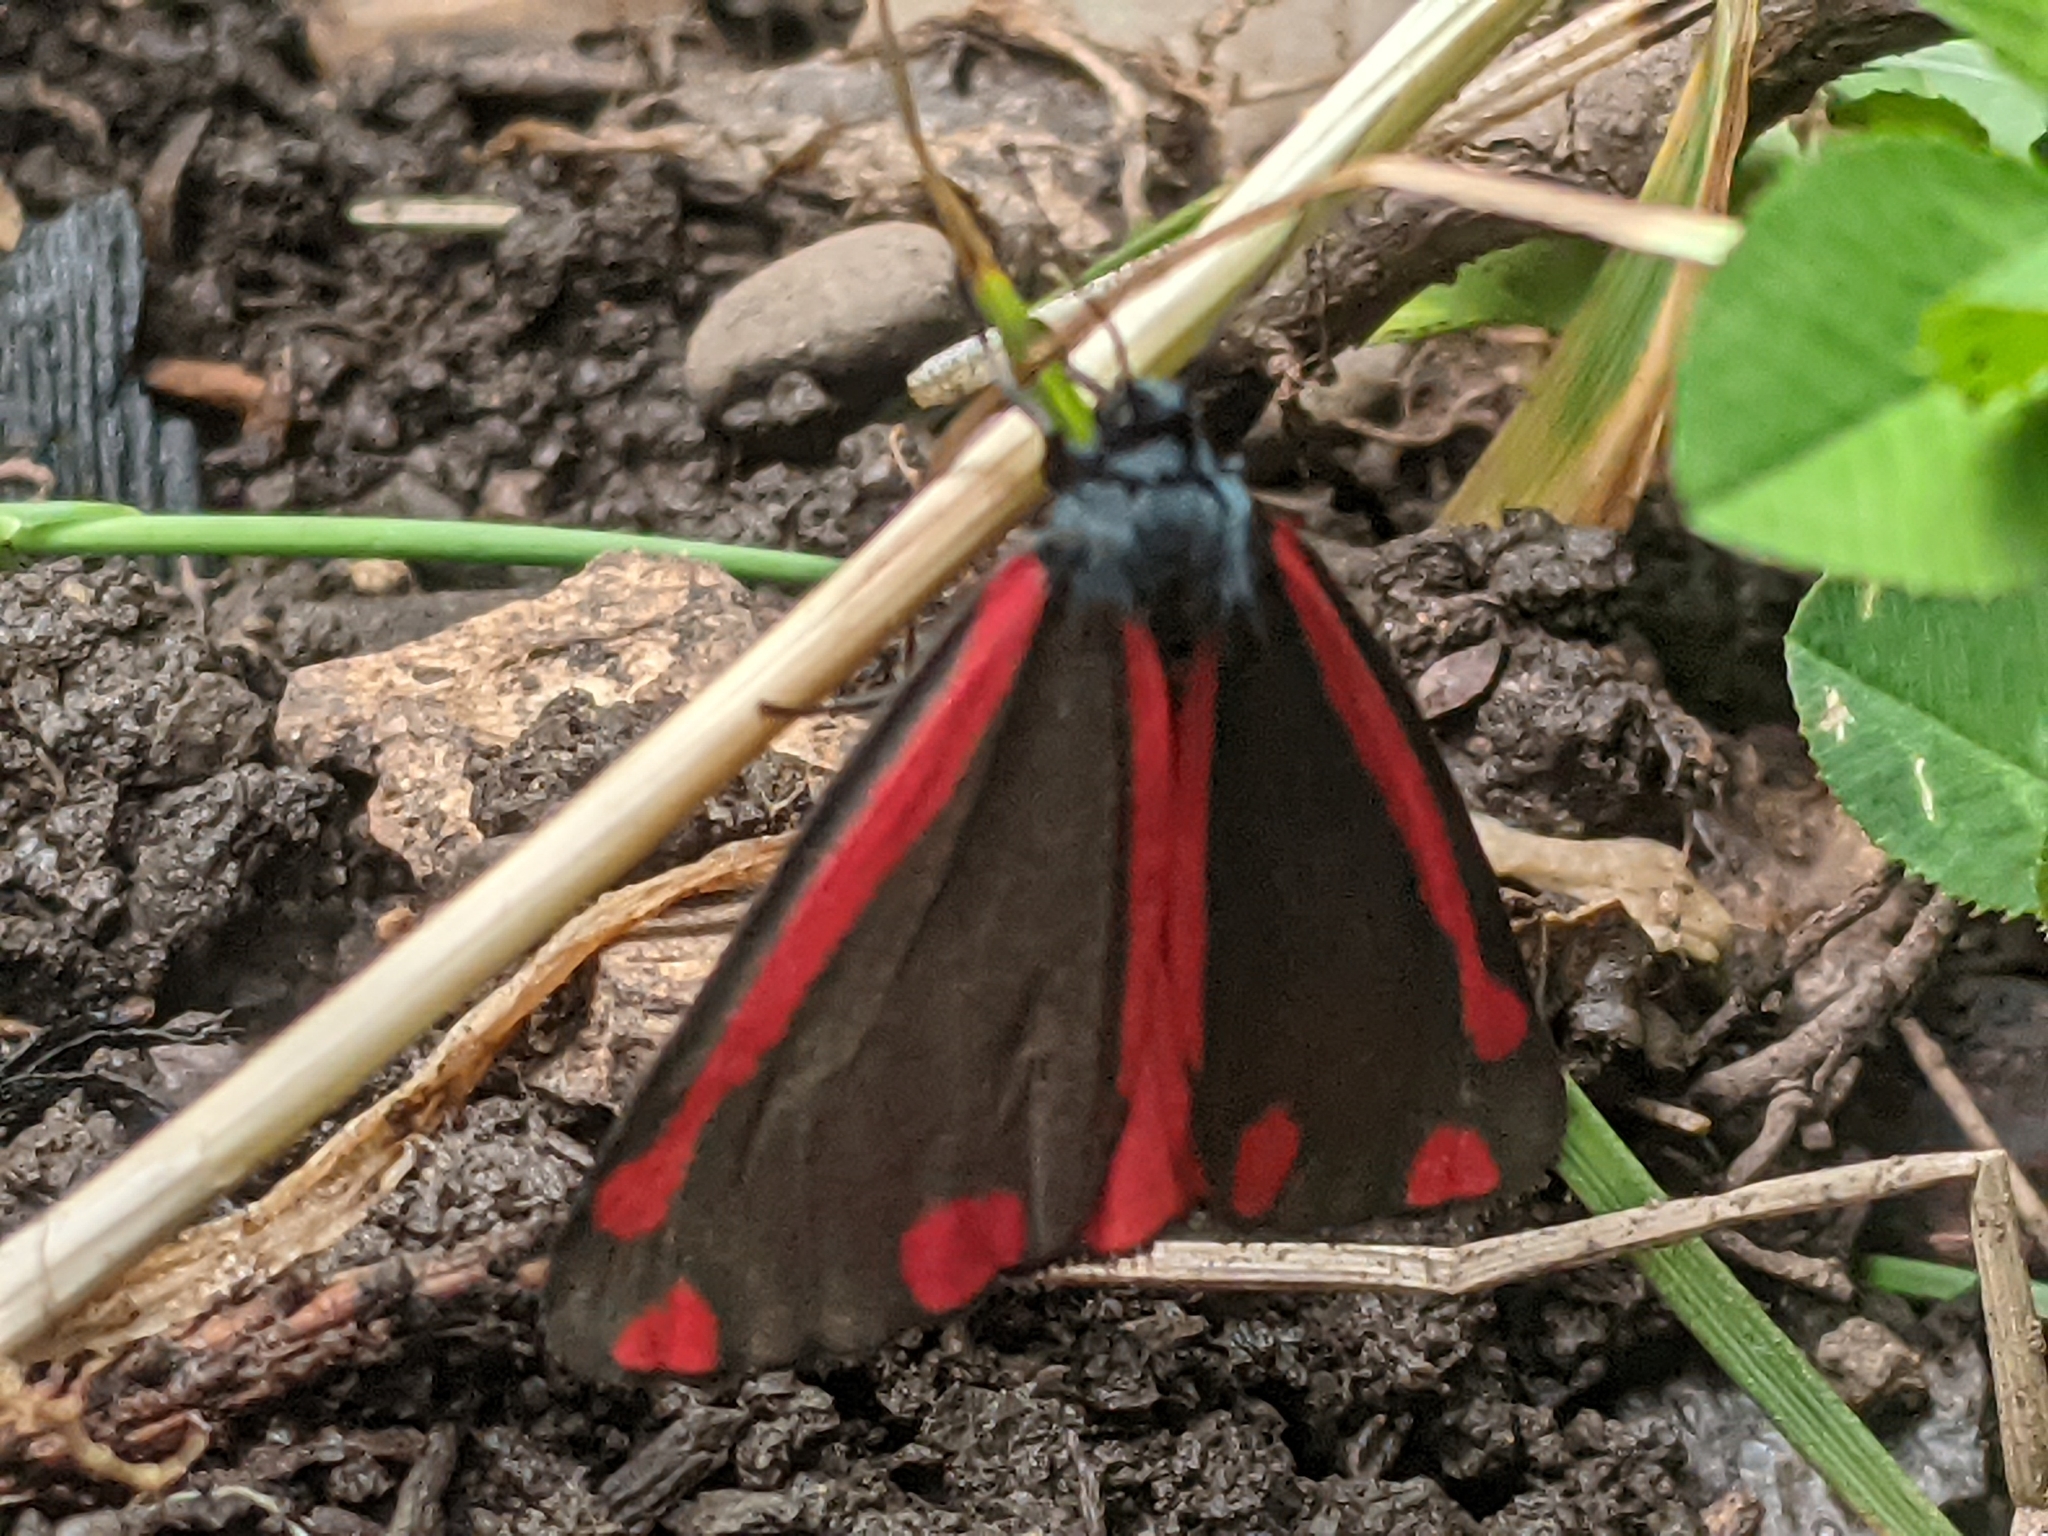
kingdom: Animalia
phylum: Arthropoda
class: Insecta
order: Lepidoptera
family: Erebidae
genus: Tyria
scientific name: Tyria jacobaeae
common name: Cinnabar
